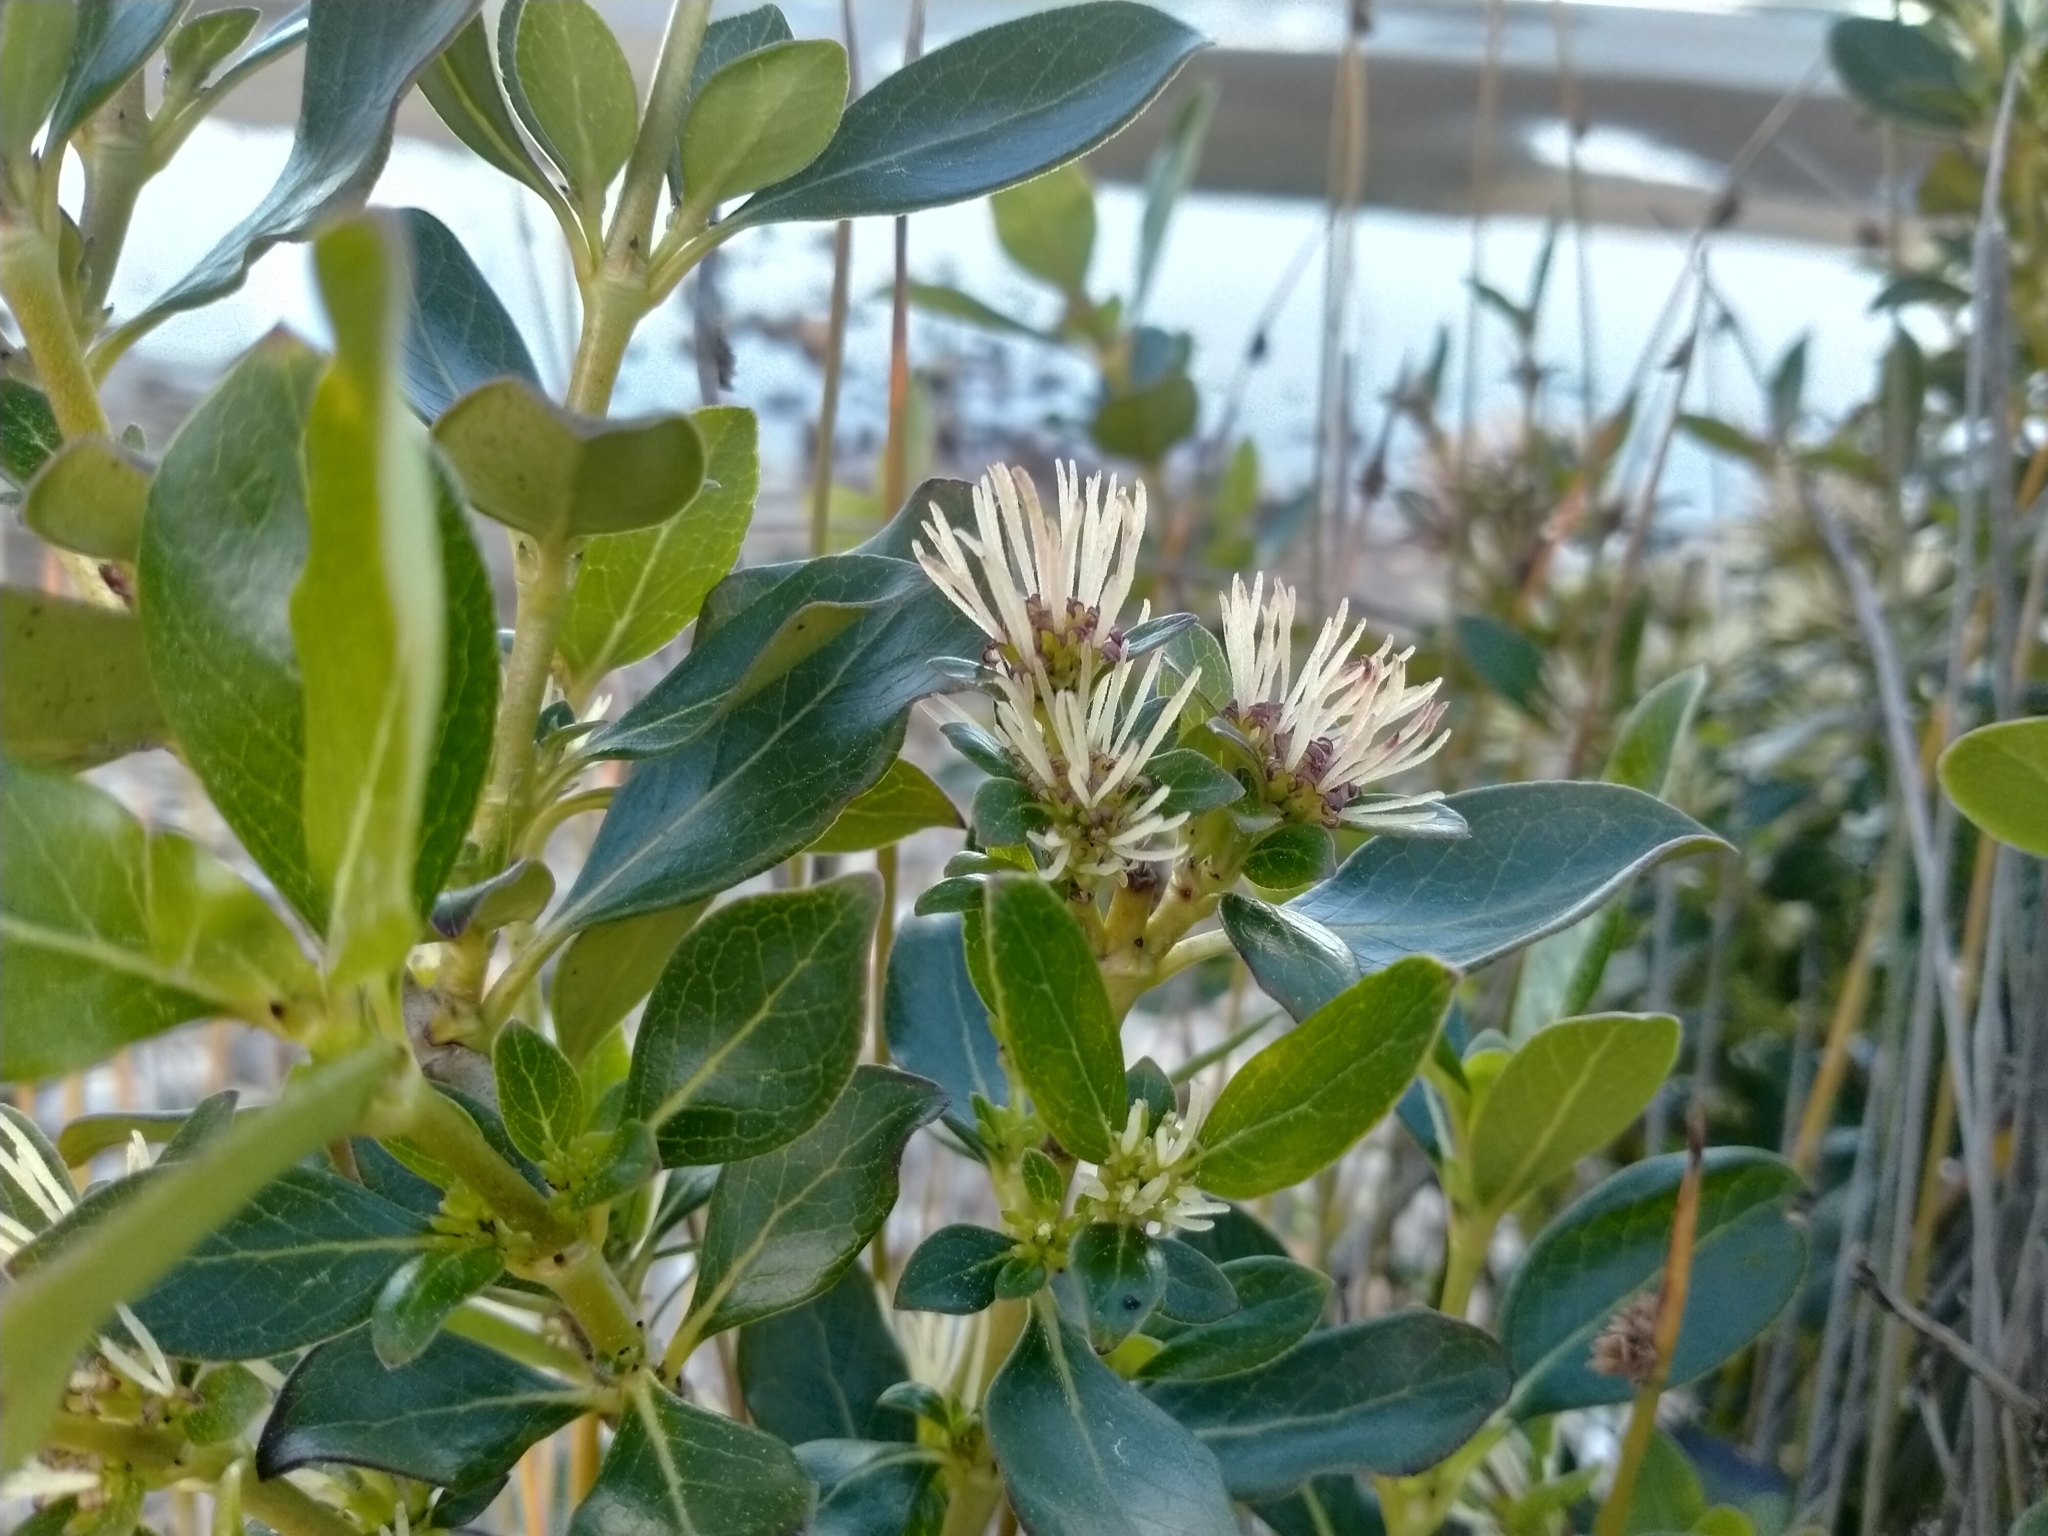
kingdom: Plantae
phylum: Tracheophyta
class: Magnoliopsida
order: Gentianales
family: Rubiaceae
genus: Coprosma
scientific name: Coprosma robusta
